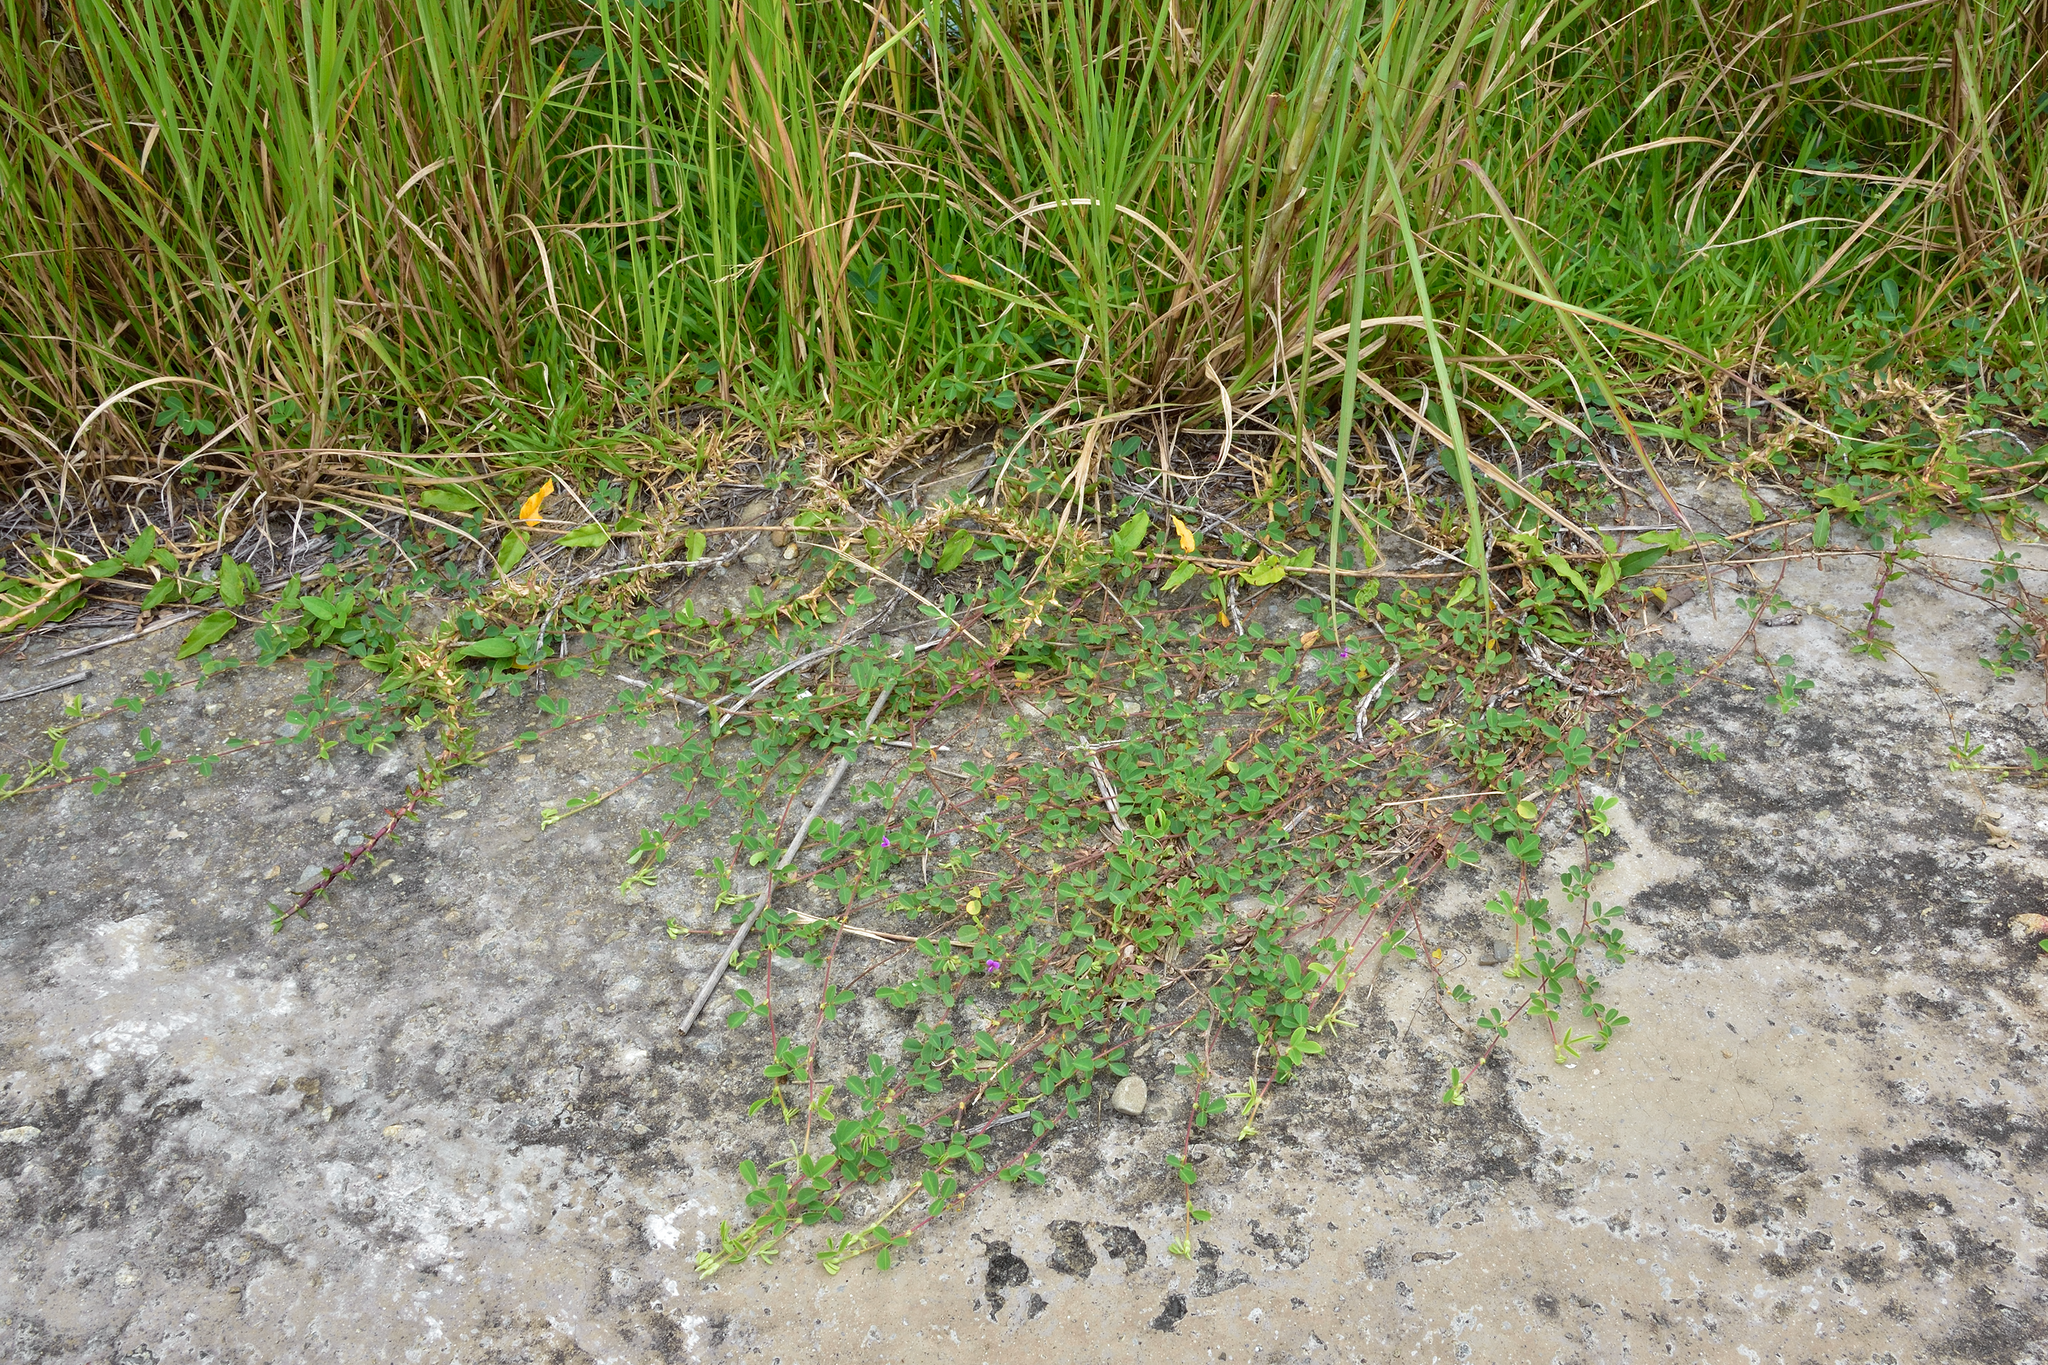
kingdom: Plantae
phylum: Tracheophyta
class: Magnoliopsida
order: Fabales
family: Fabaceae
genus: Grona
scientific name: Grona heterophylla
